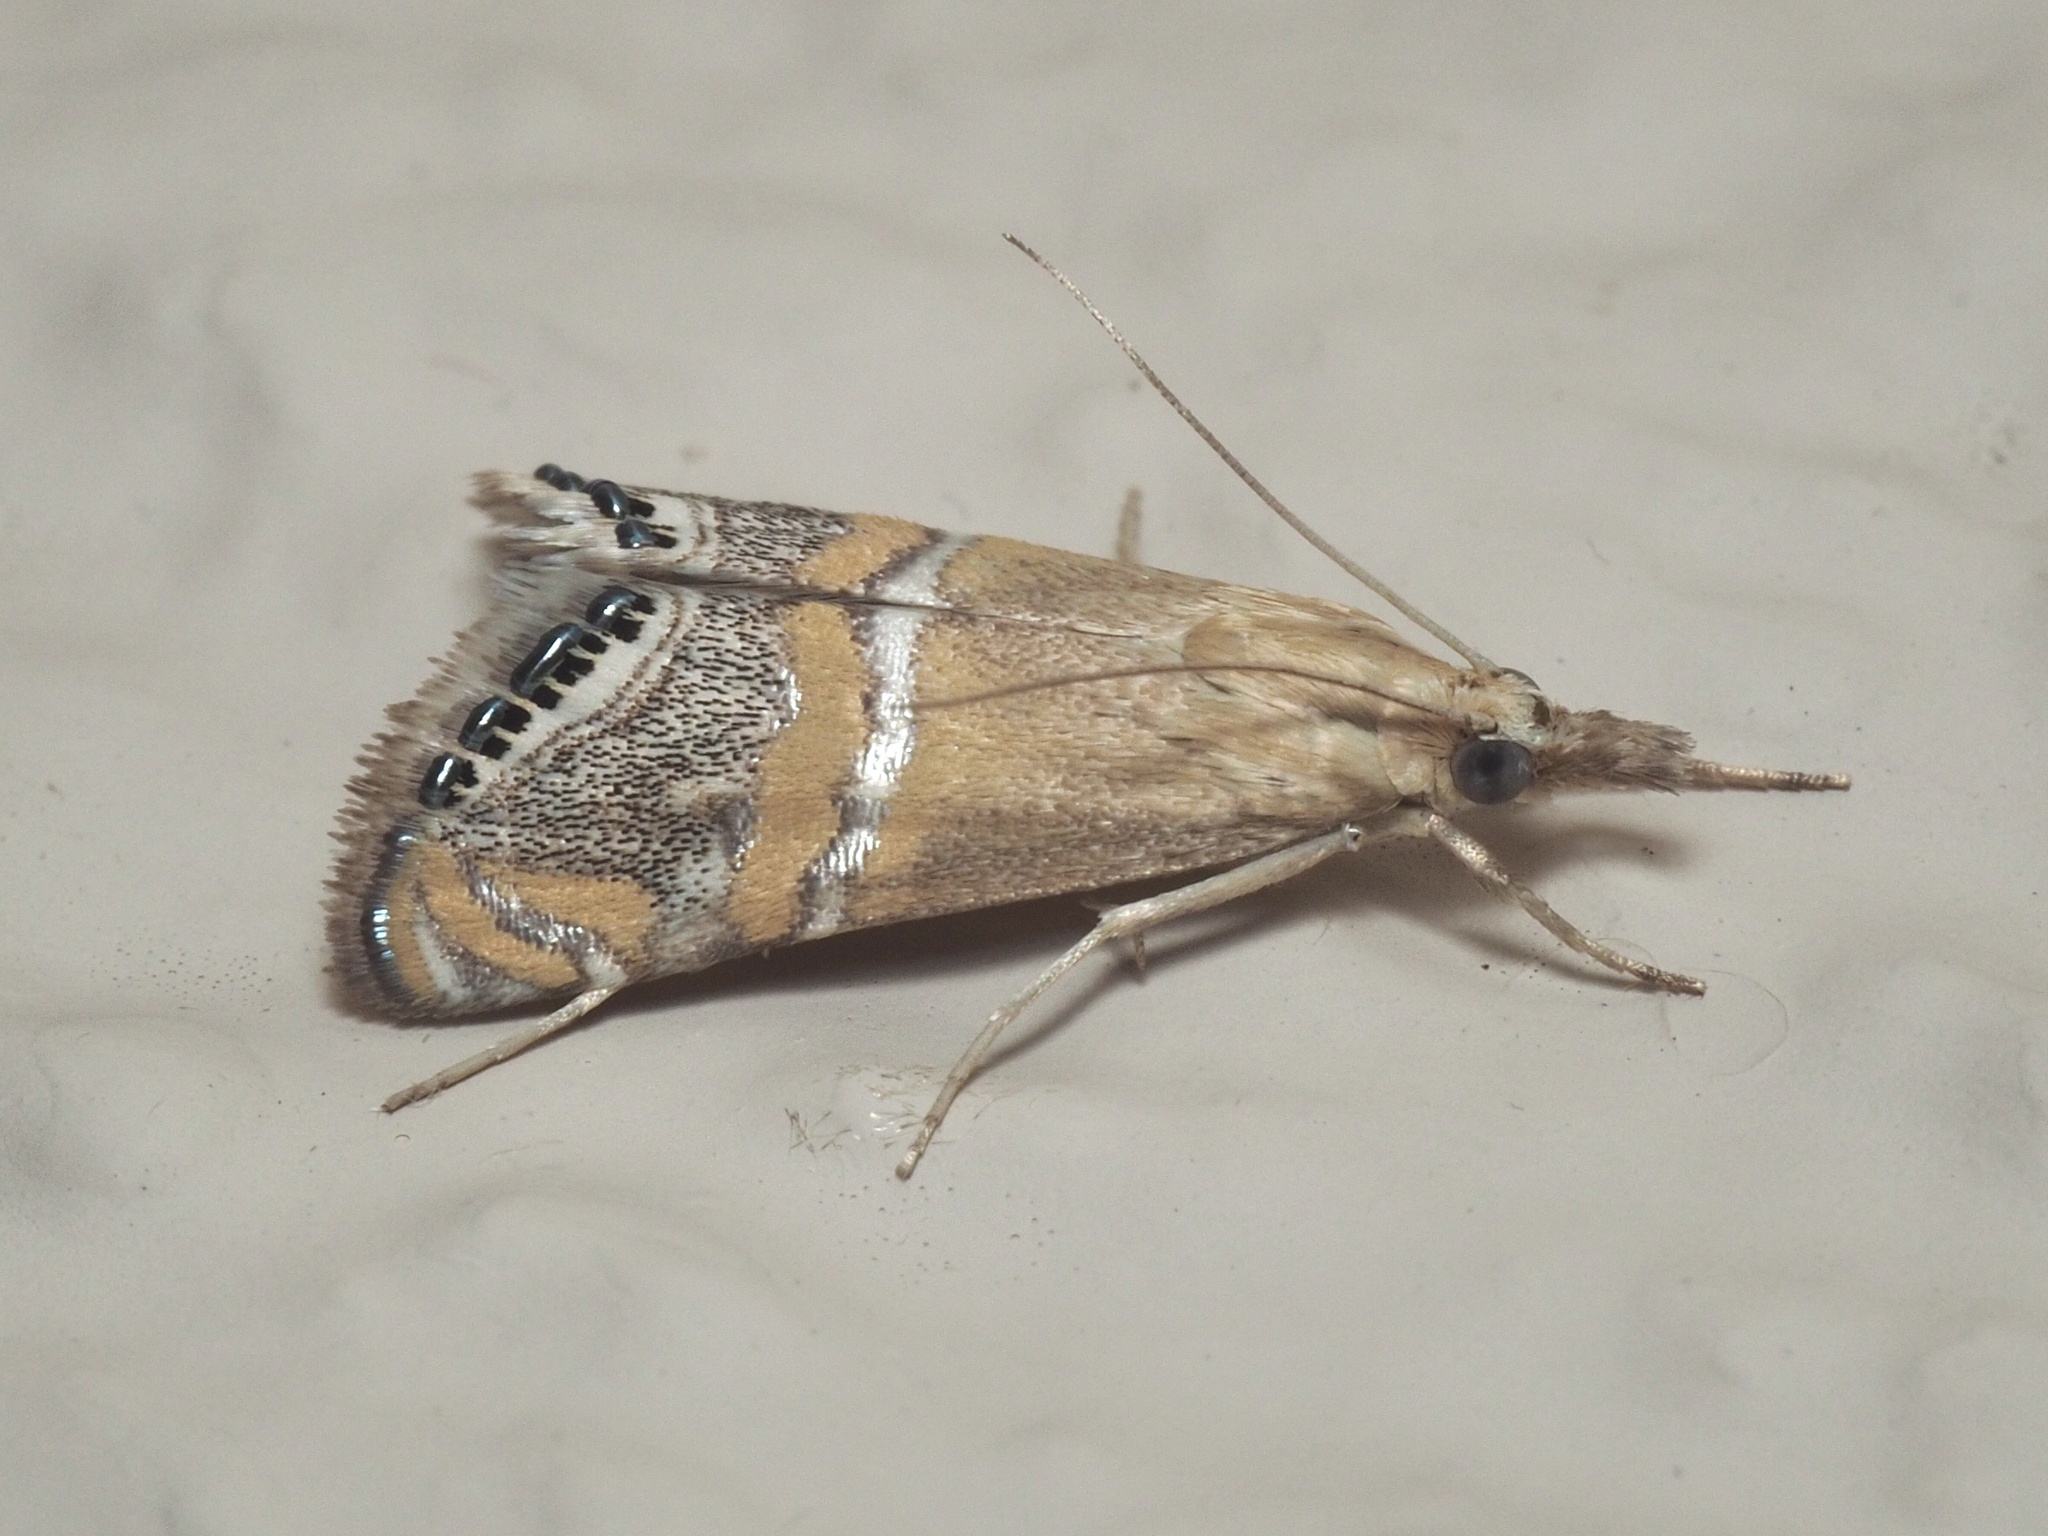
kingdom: Animalia
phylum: Arthropoda
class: Insecta
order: Lepidoptera
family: Crambidae
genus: Euchromius
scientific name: Euchromius bella
